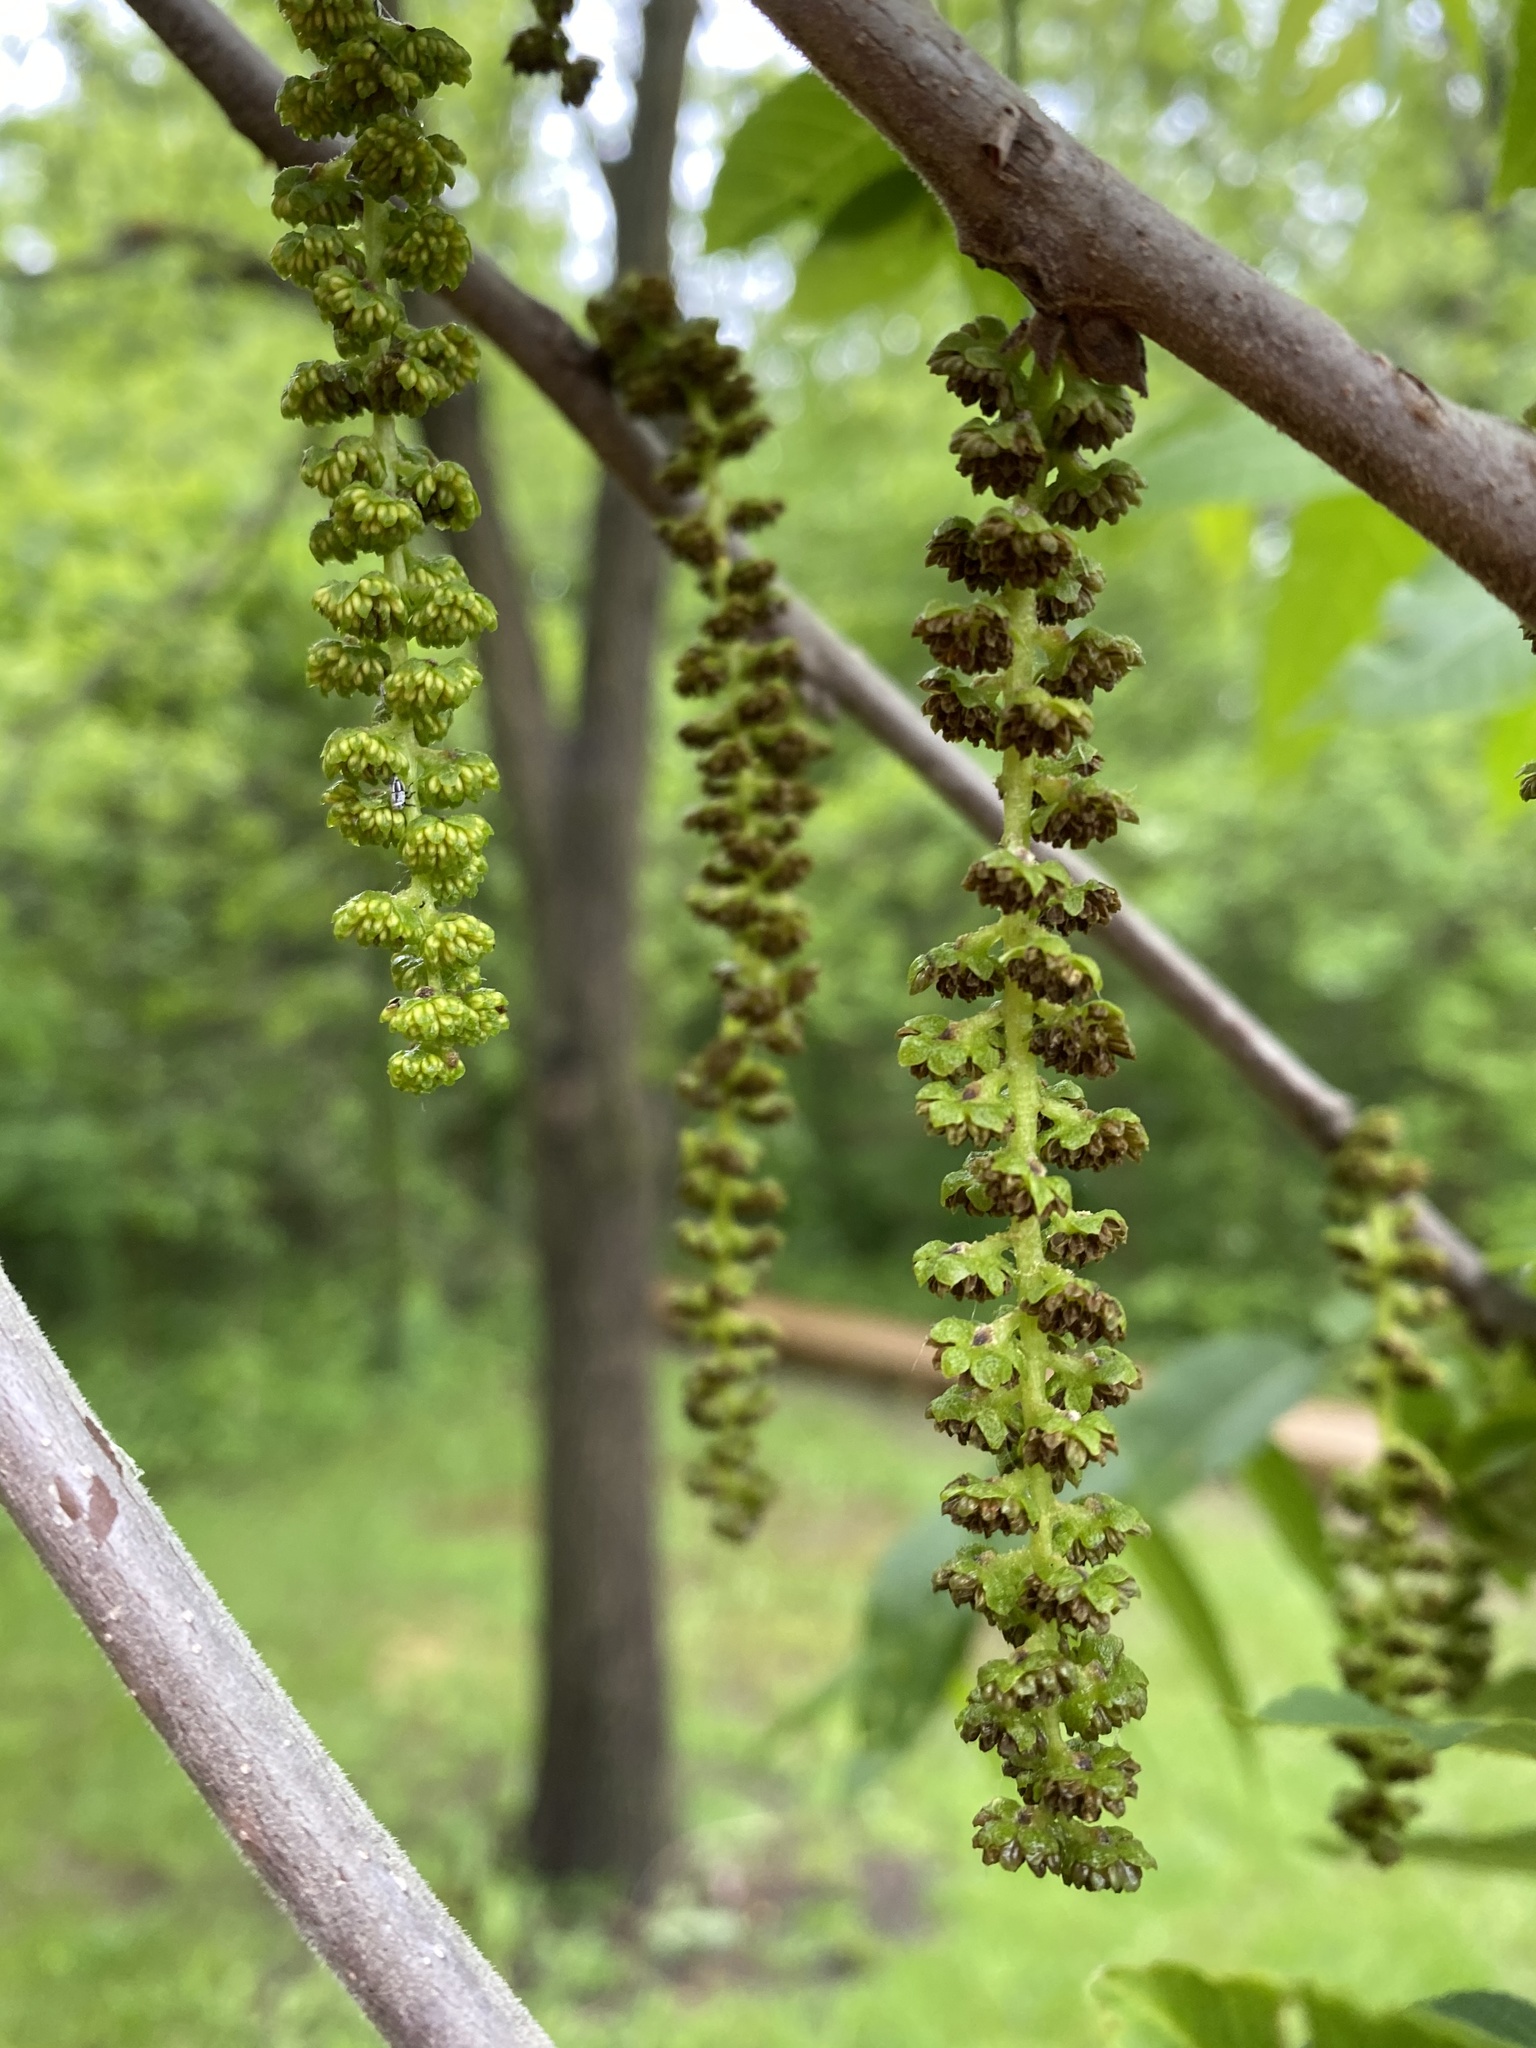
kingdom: Plantae
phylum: Tracheophyta
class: Magnoliopsida
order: Fagales
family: Juglandaceae
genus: Juglans
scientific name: Juglans nigra
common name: Black walnut
